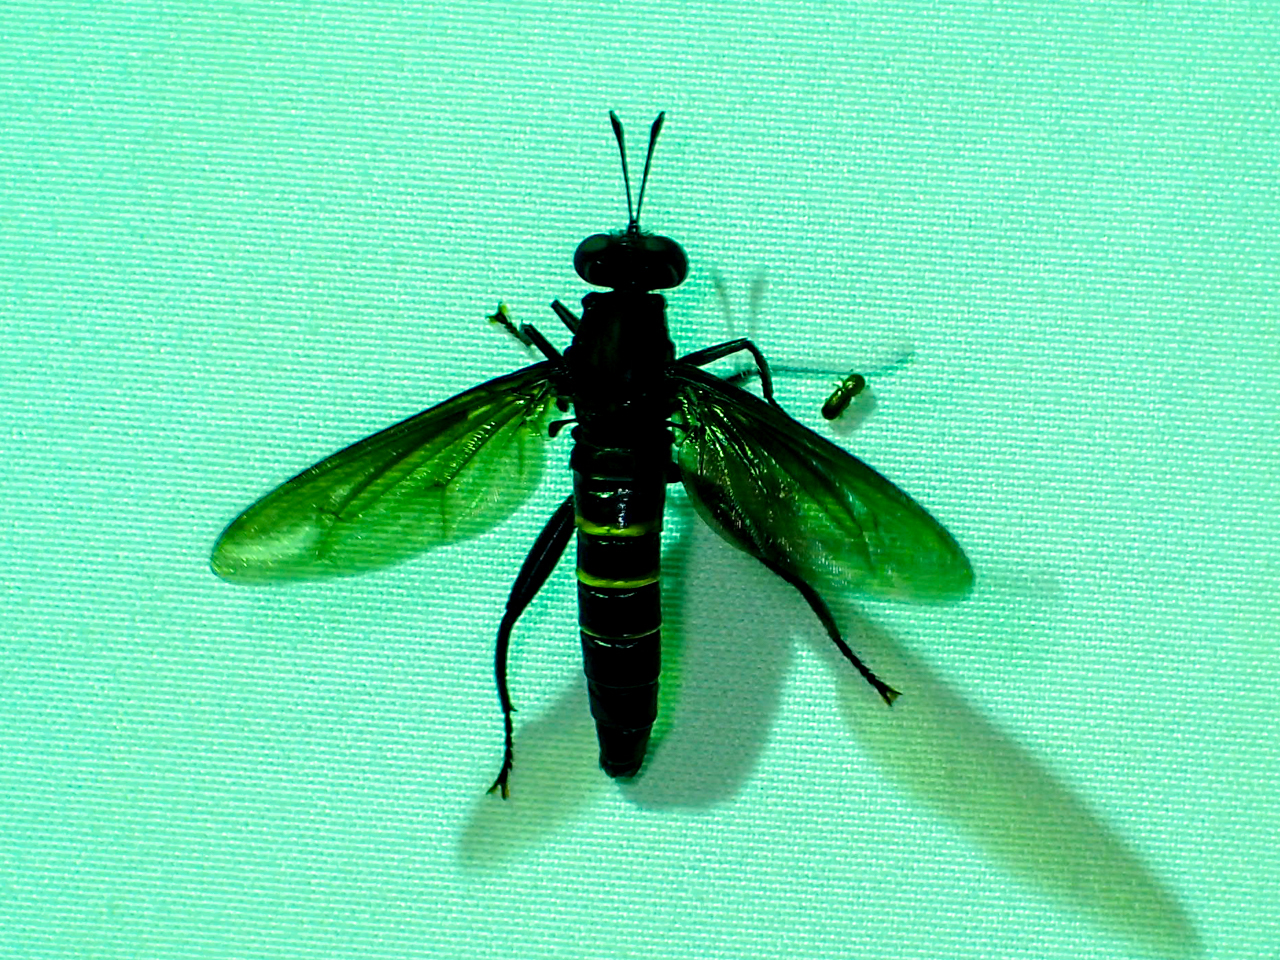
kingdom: Animalia
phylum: Arthropoda
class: Insecta
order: Diptera
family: Mydidae
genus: Mydas
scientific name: Mydas fulvifrons
